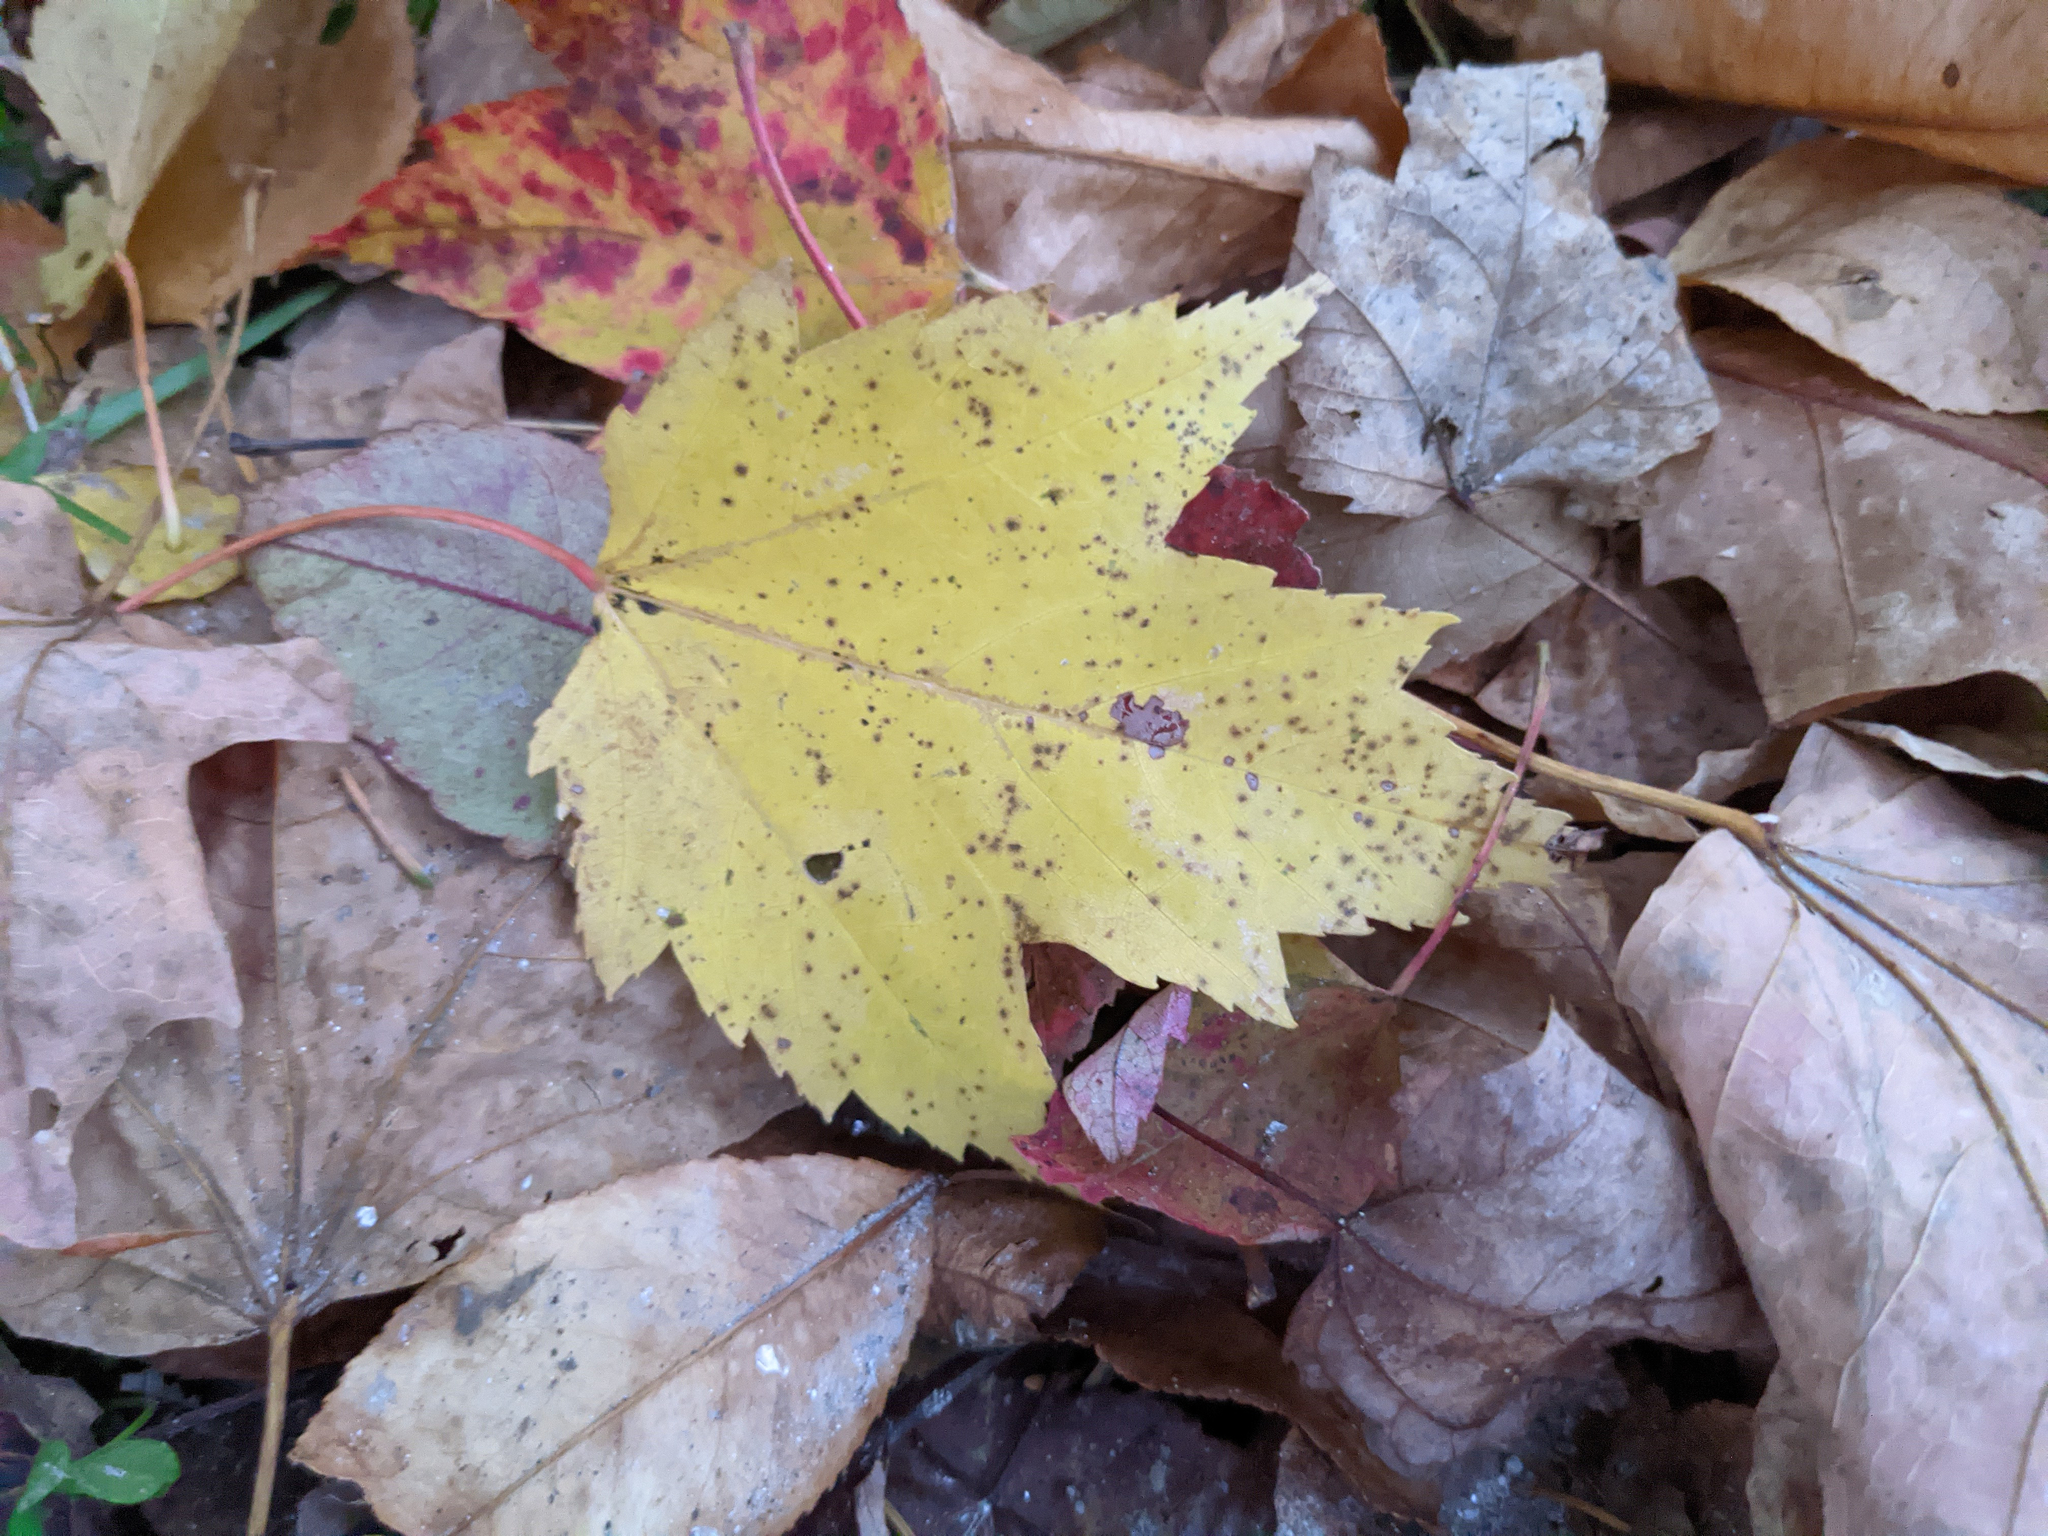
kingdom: Plantae
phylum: Tracheophyta
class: Magnoliopsida
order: Sapindales
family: Sapindaceae
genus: Acer
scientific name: Acer rubrum
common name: Red maple
